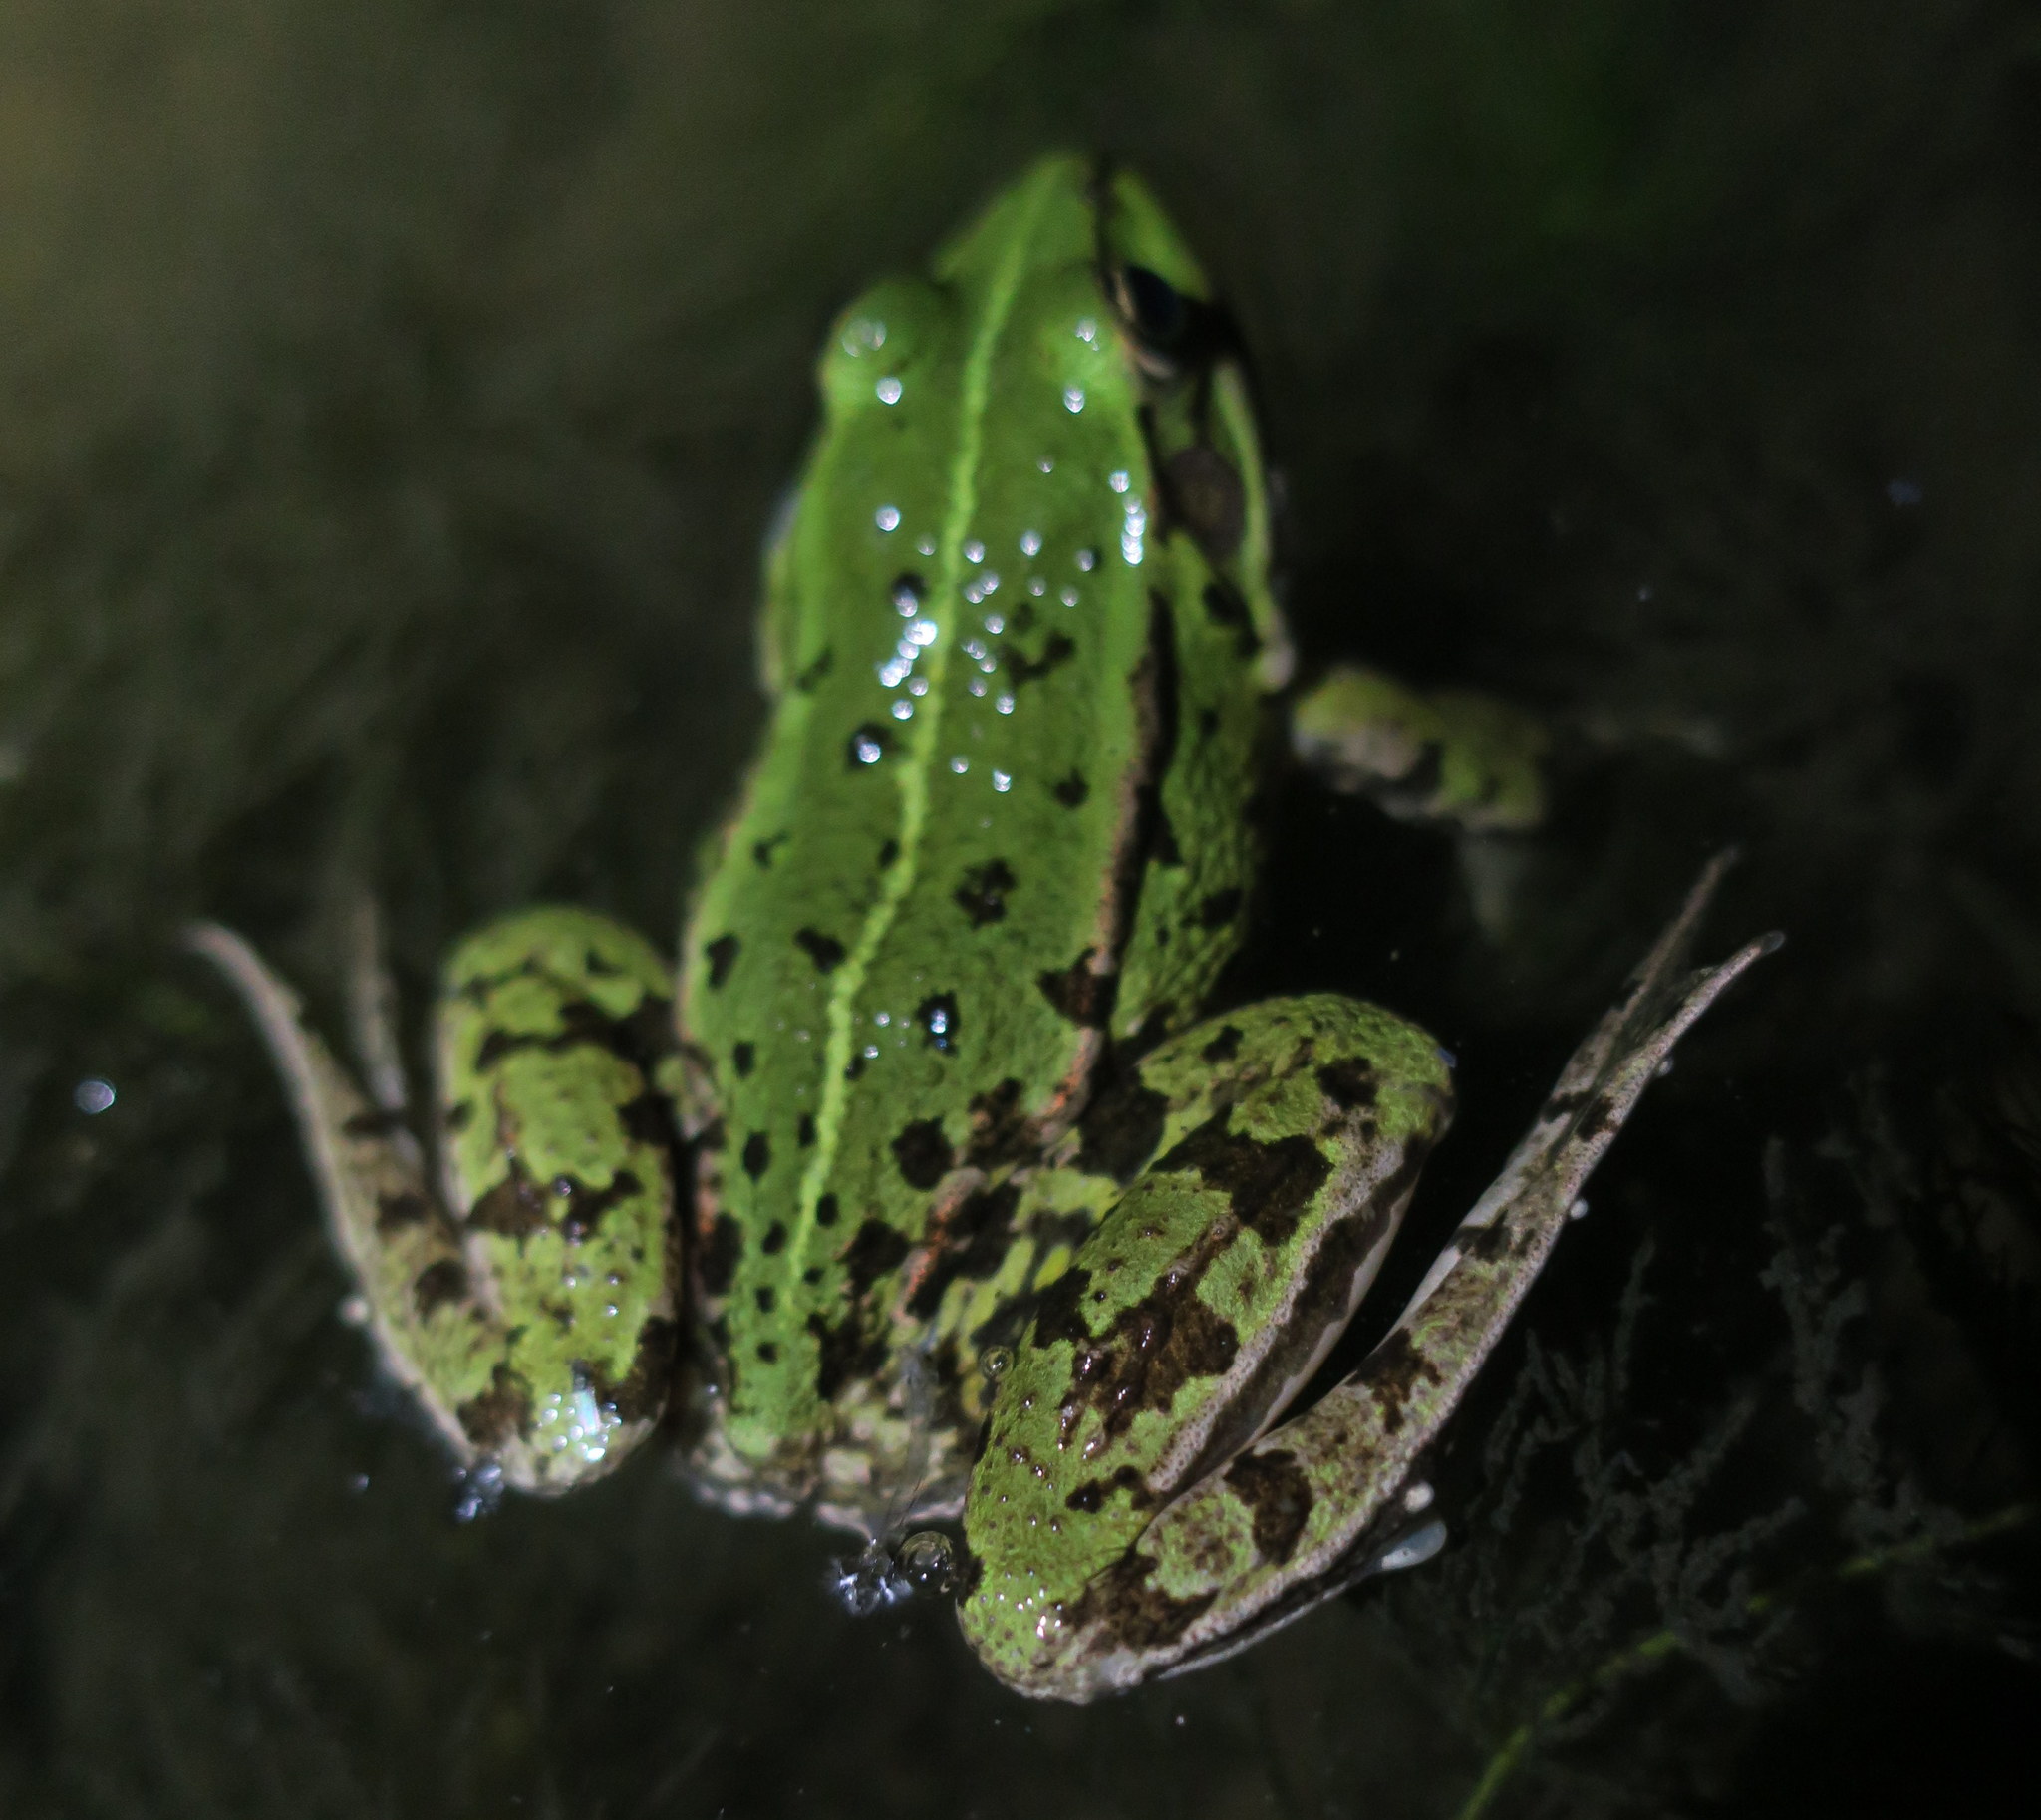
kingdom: Animalia
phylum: Chordata
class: Amphibia
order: Anura
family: Ranidae
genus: Pelophylax
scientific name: Pelophylax lessonae
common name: Pool frog
